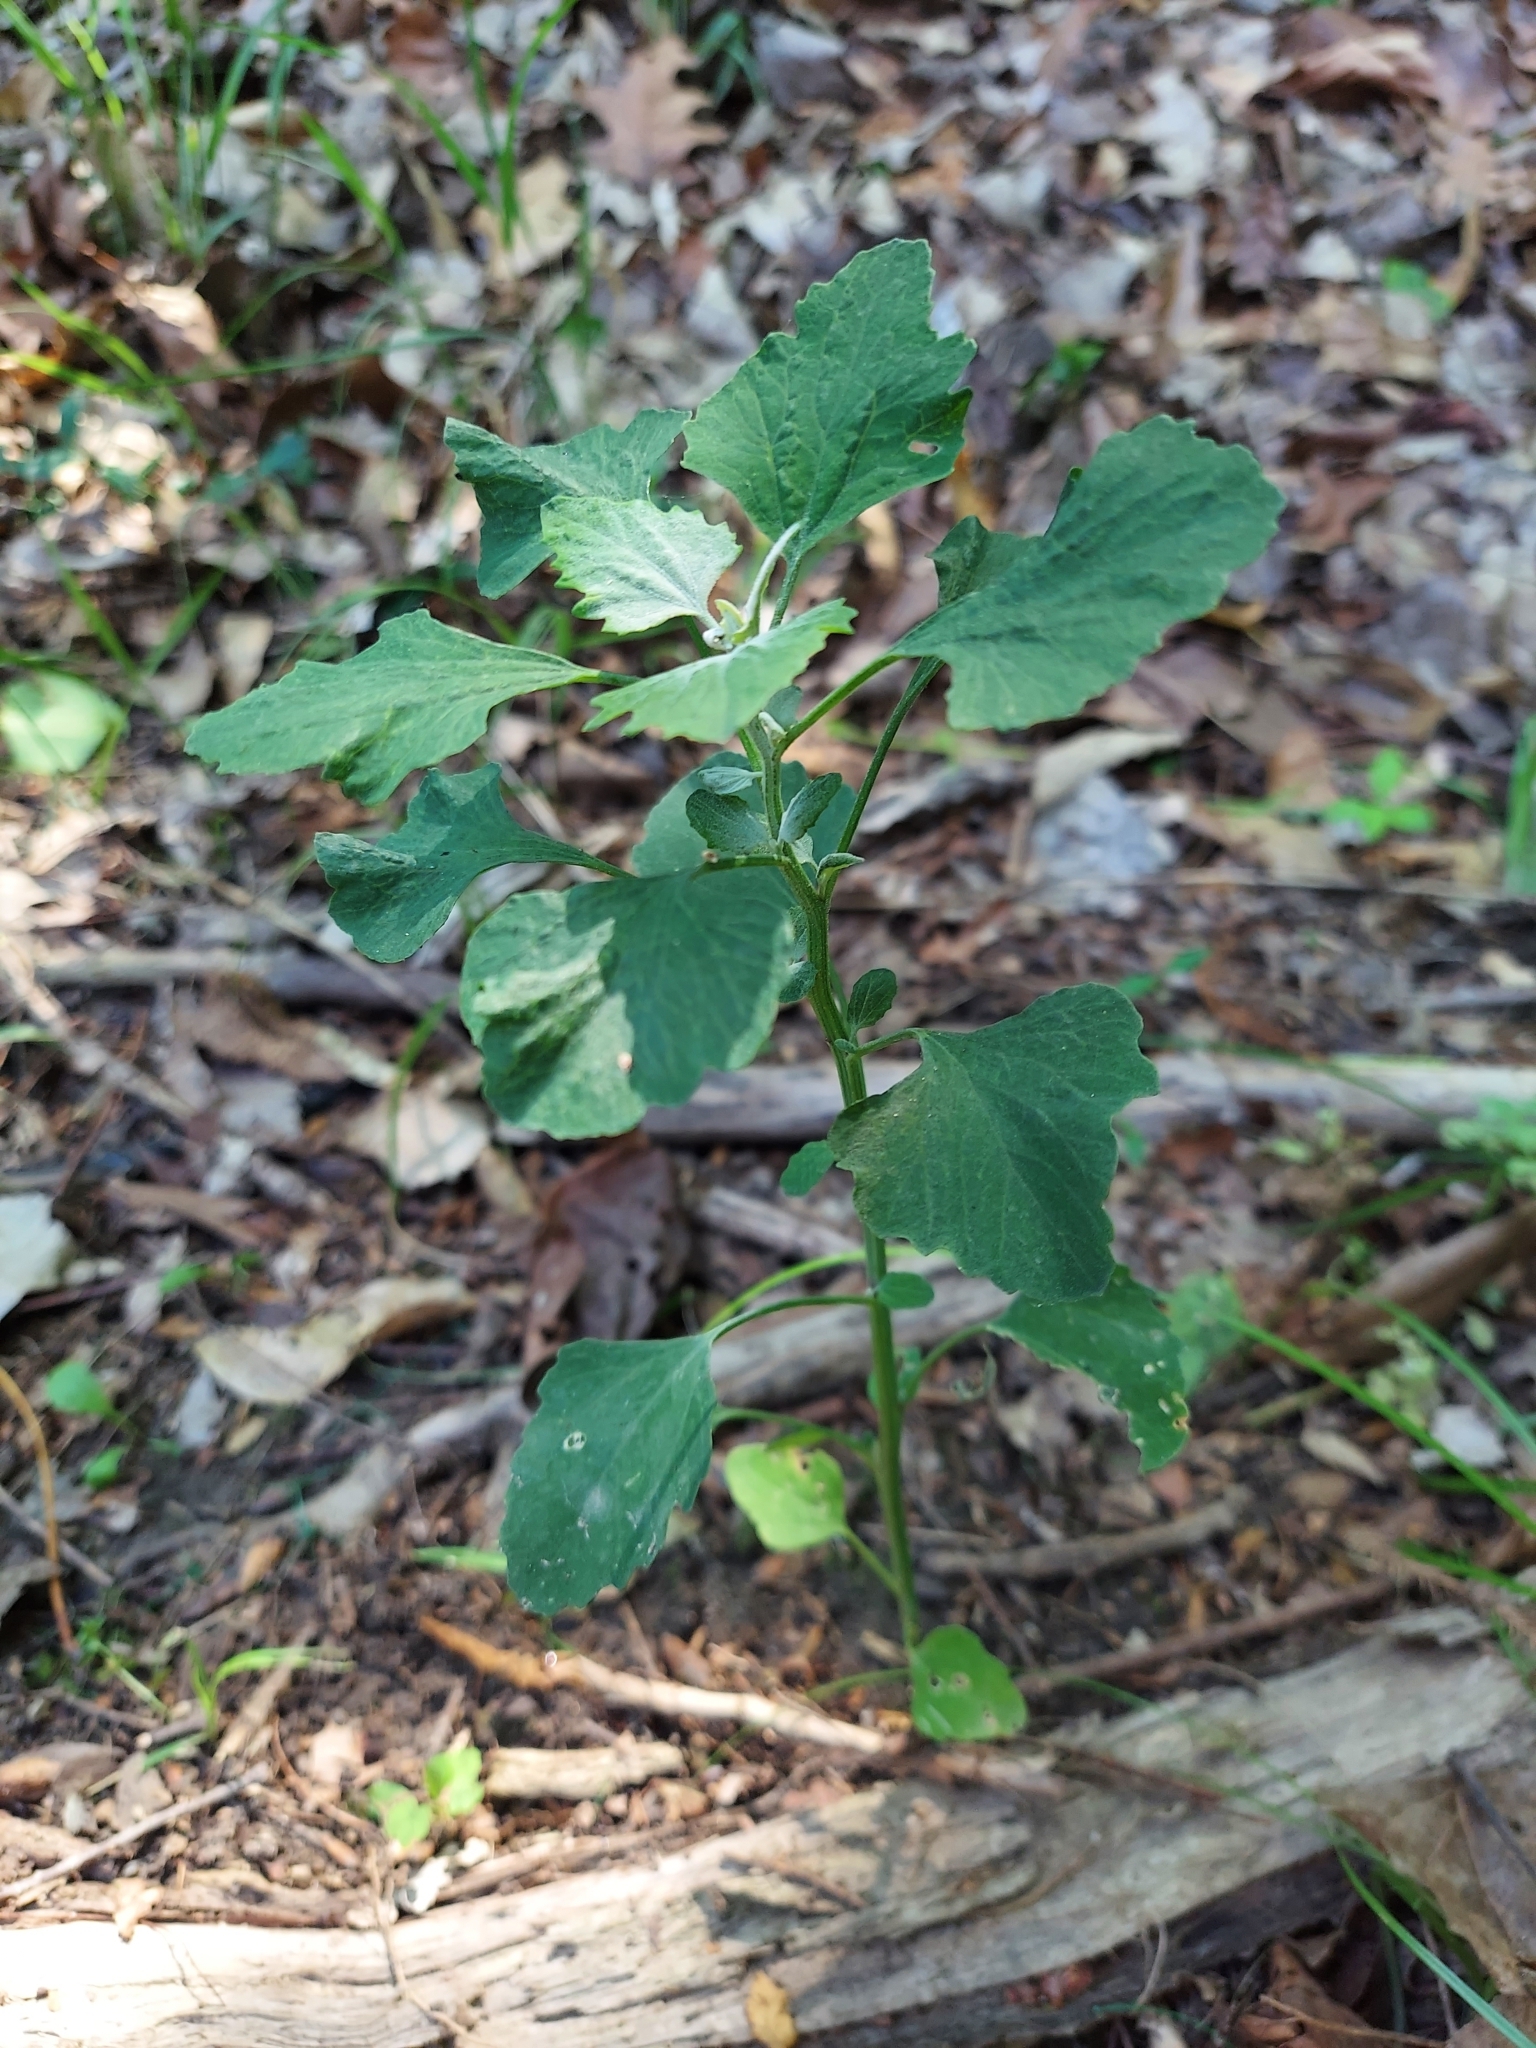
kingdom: Plantae
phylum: Tracheophyta
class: Magnoliopsida
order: Caryophyllales
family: Amaranthaceae
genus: Chenopodium
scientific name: Chenopodium album
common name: Fat-hen
